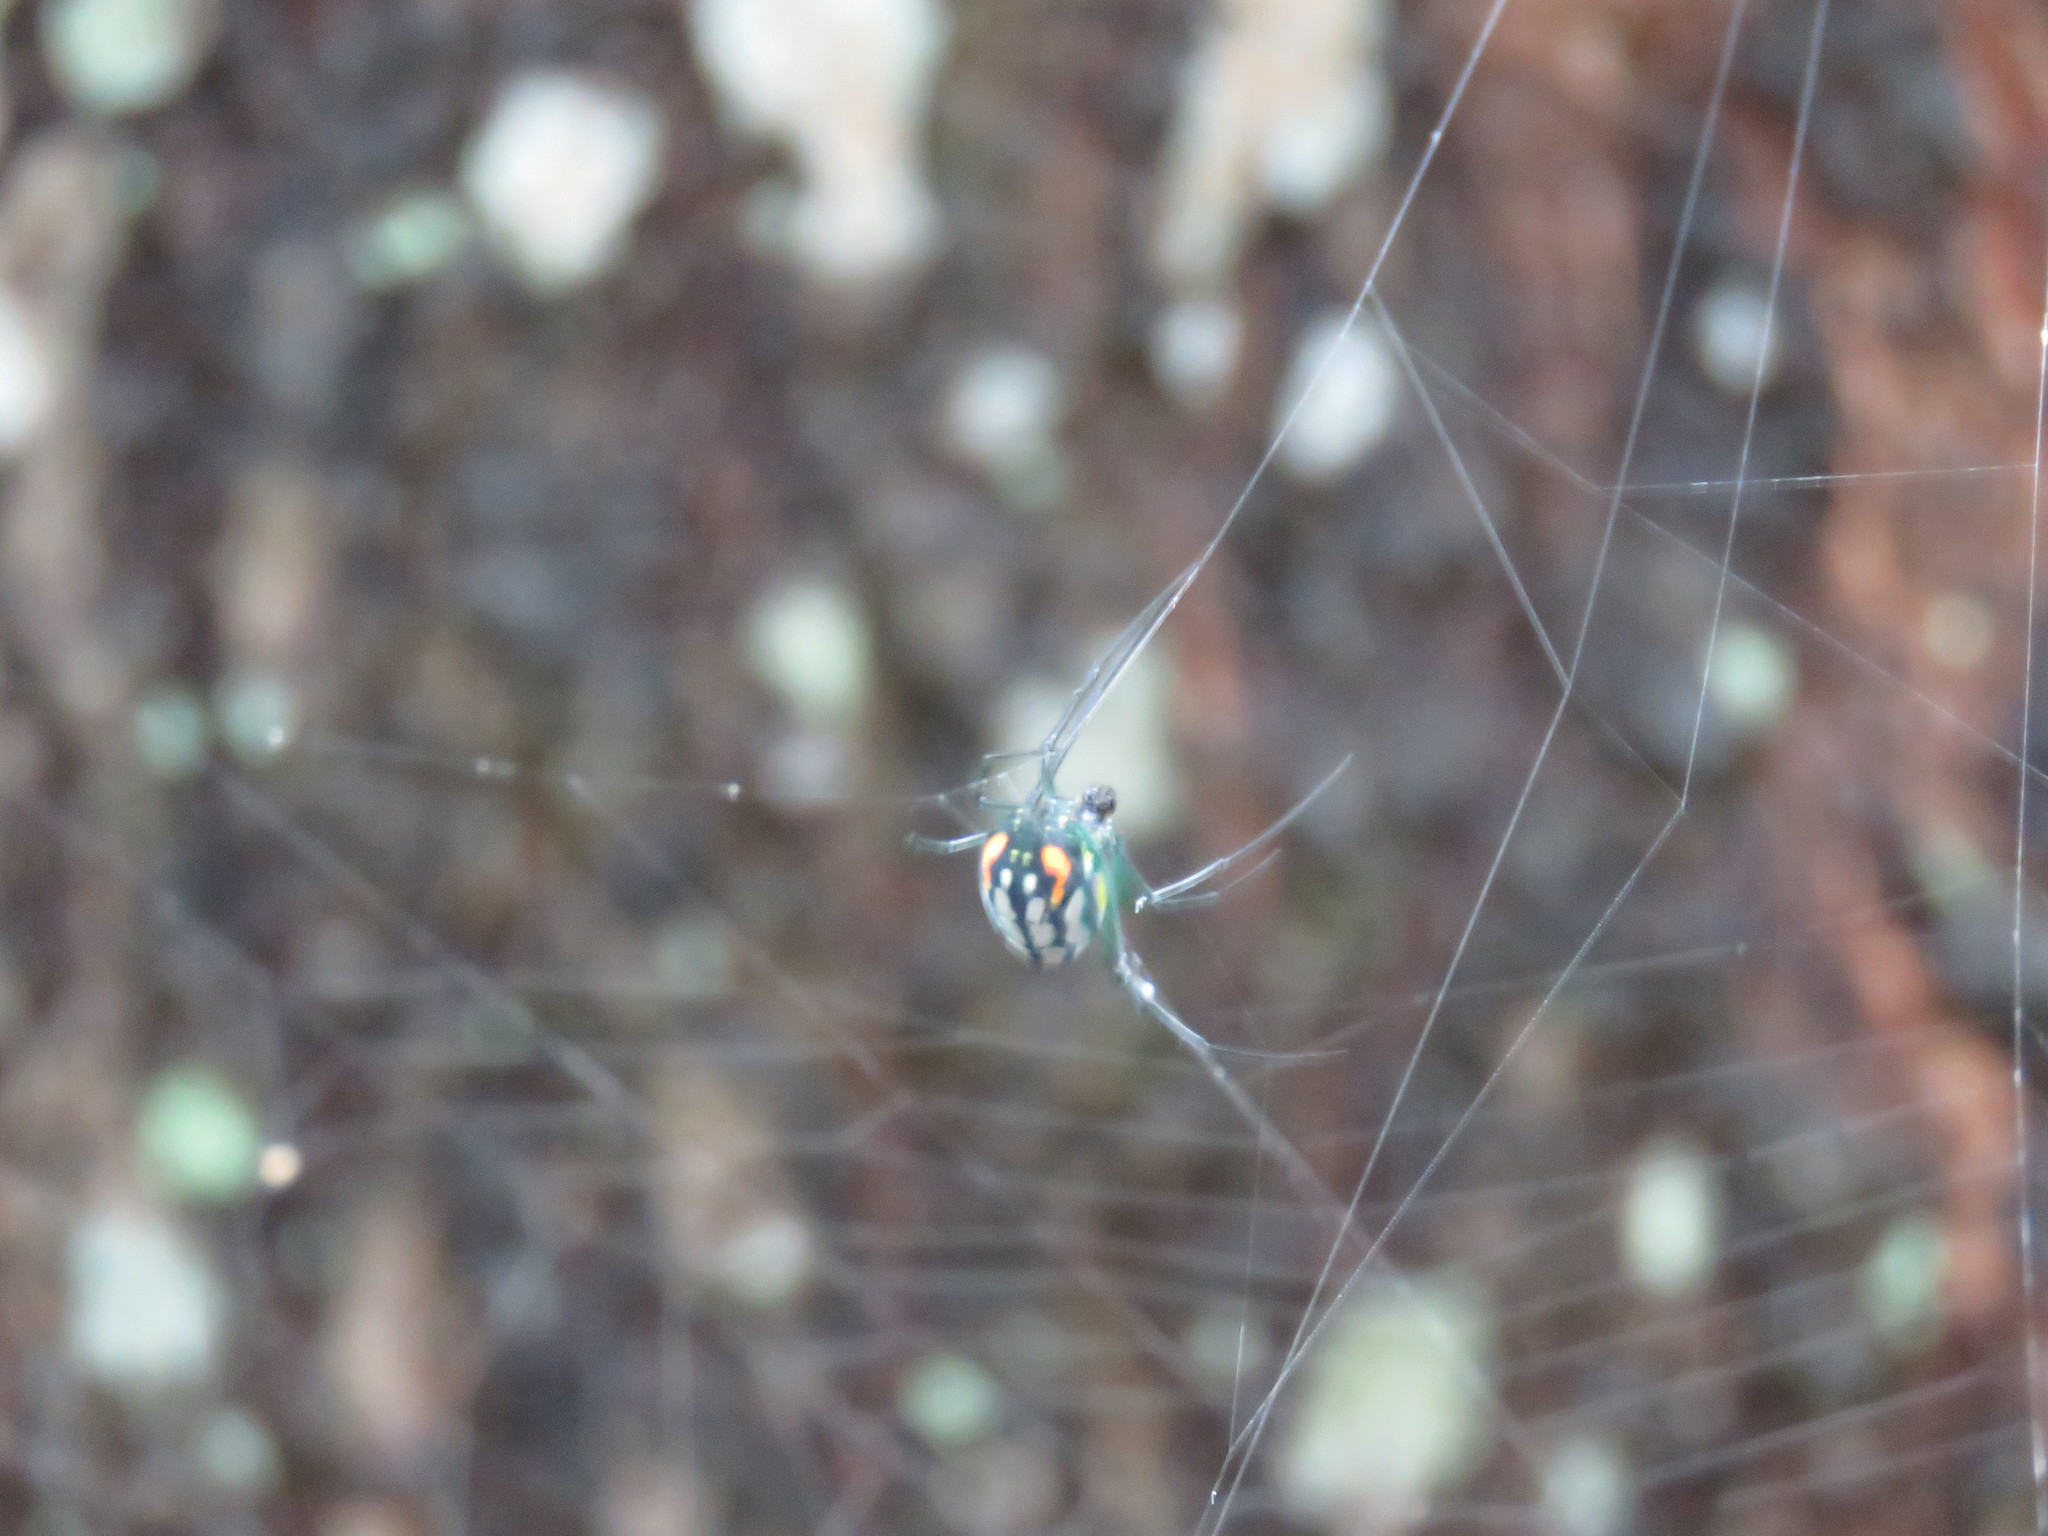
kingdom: Animalia
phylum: Arthropoda
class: Arachnida
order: Araneae
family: Tetragnathidae
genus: Leucauge
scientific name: Leucauge venusta
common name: Longjawed orb weavers
